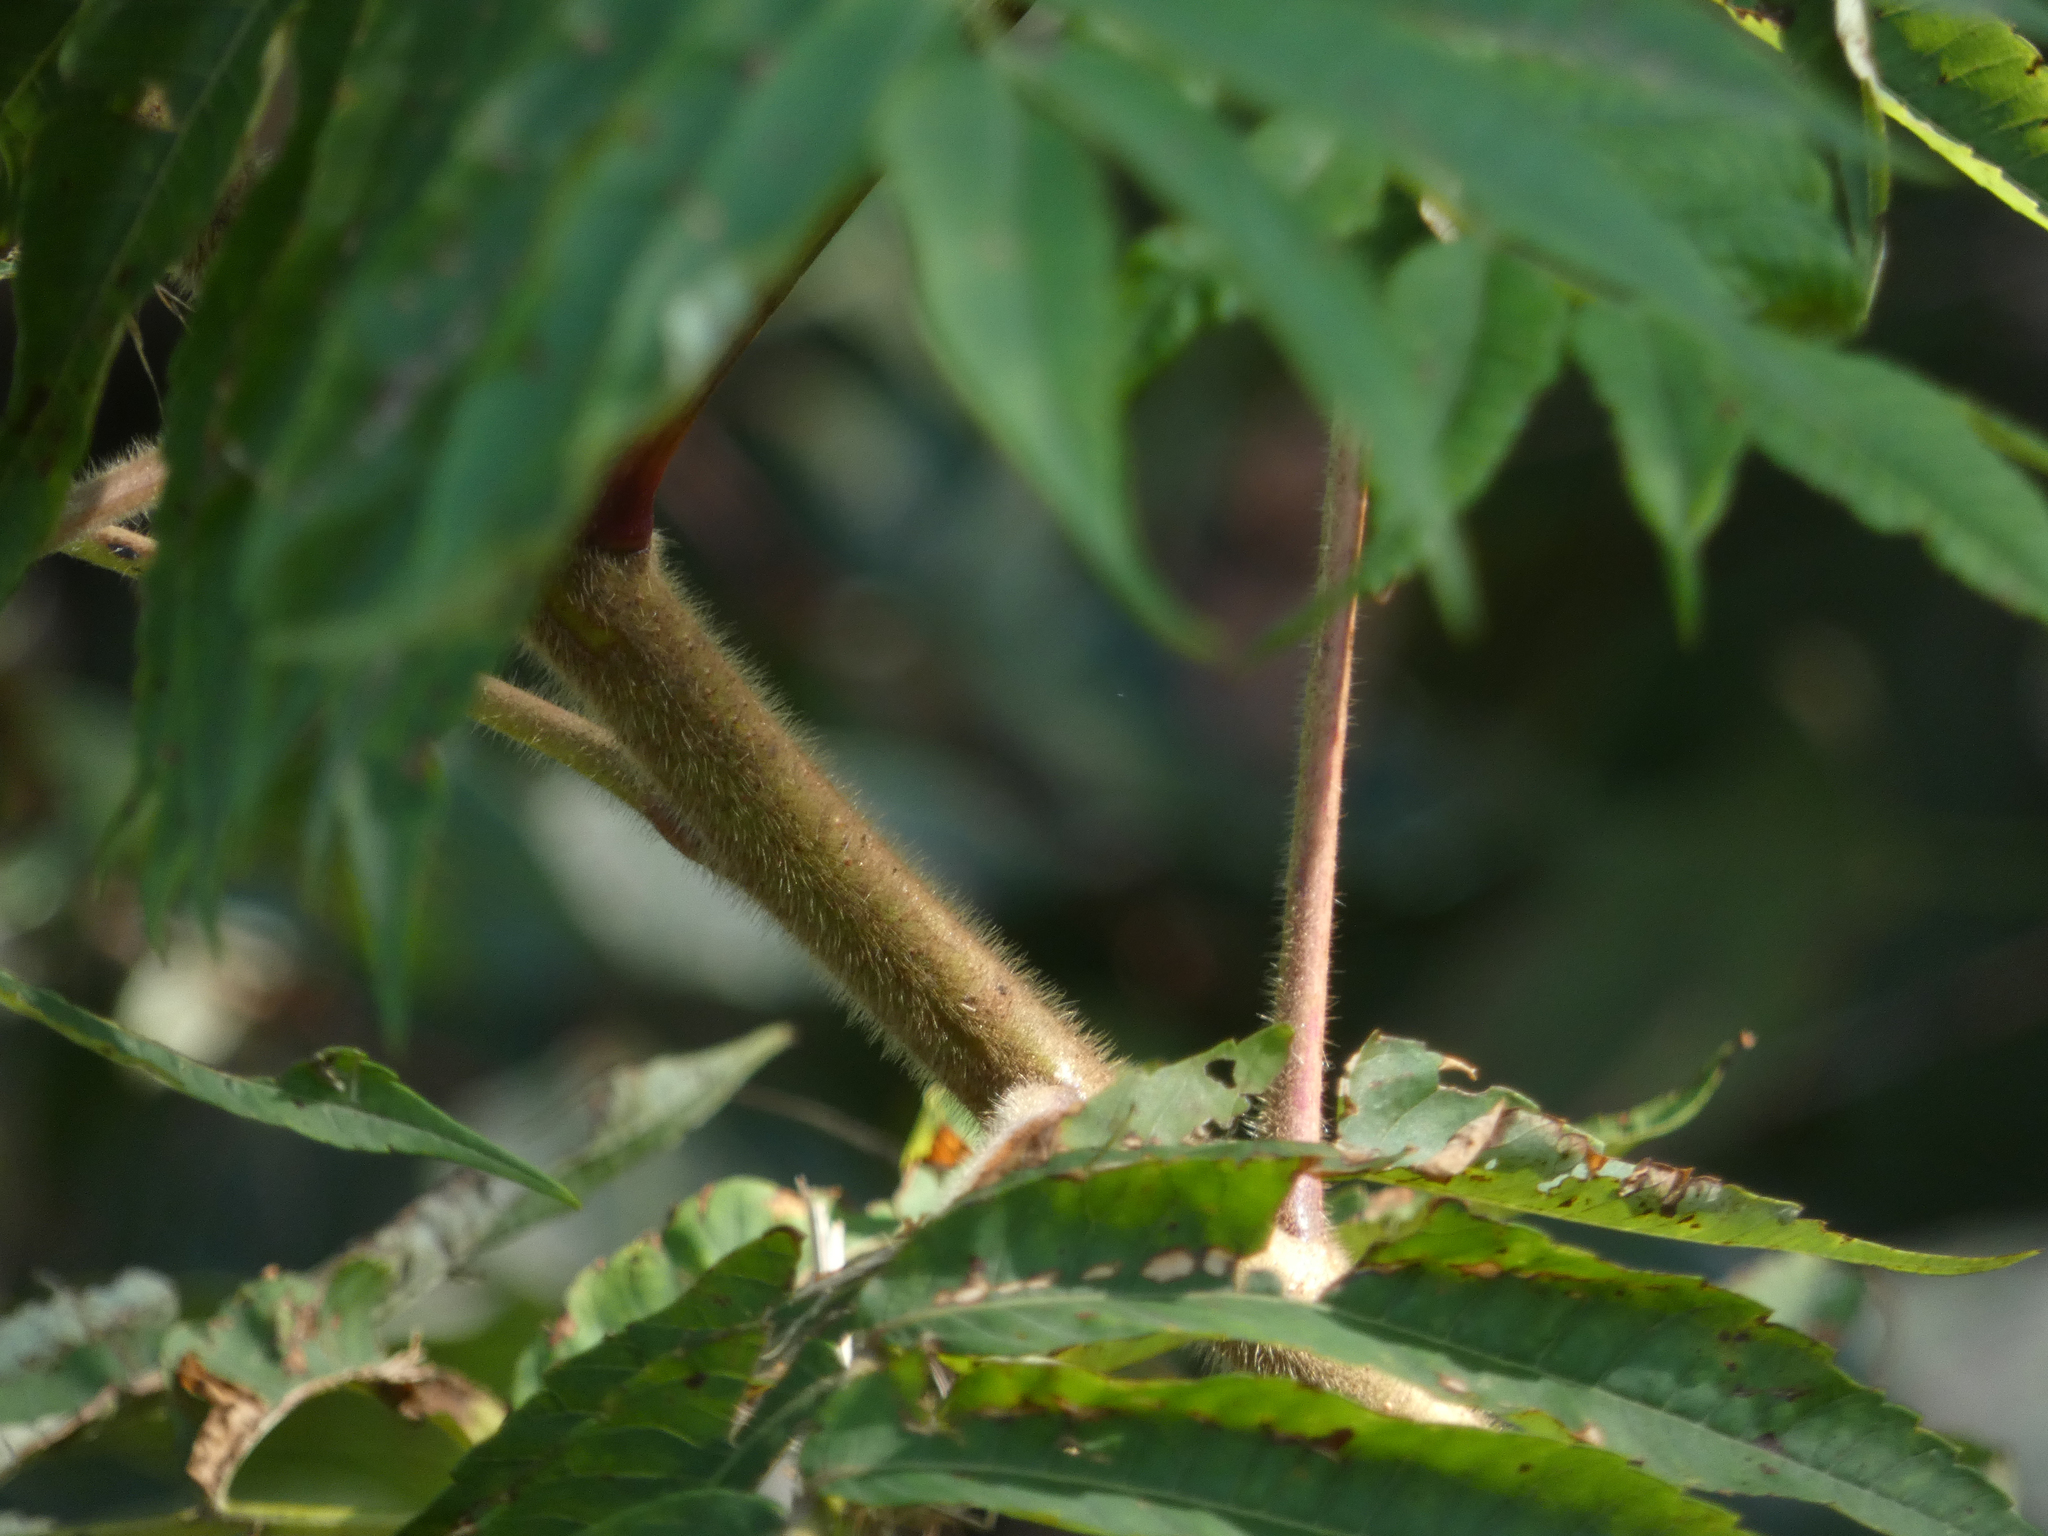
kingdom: Plantae
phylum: Tracheophyta
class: Magnoliopsida
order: Sapindales
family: Anacardiaceae
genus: Rhus
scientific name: Rhus typhina
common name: Staghorn sumac
